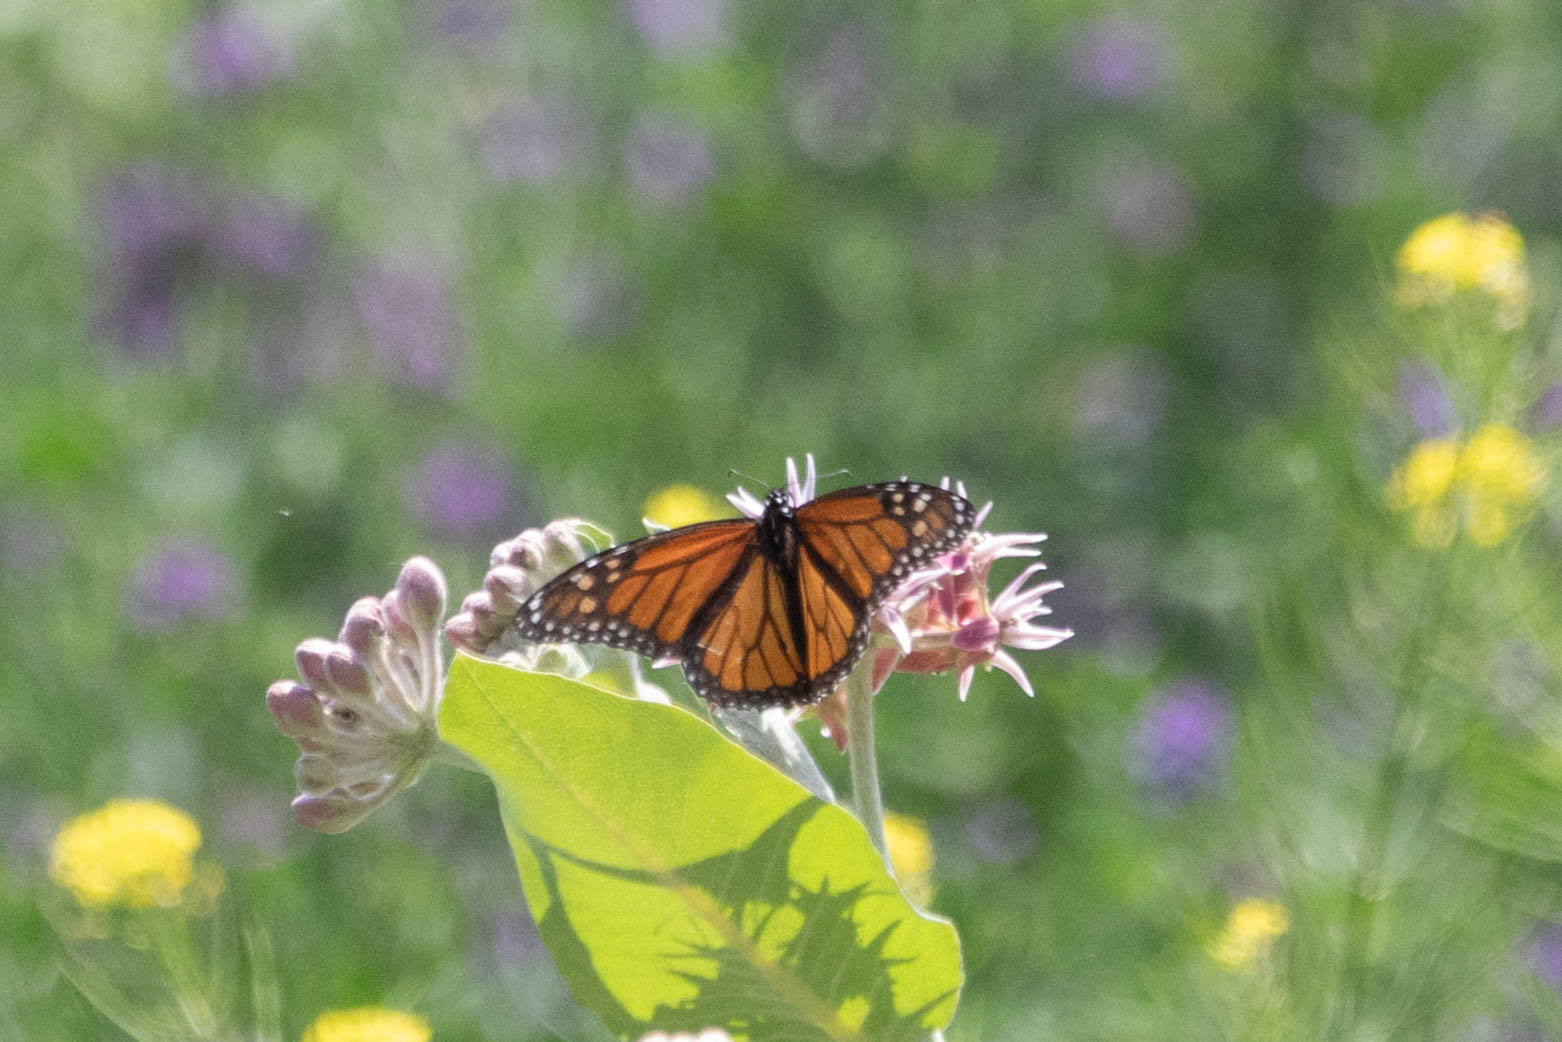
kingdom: Animalia
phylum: Arthropoda
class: Insecta
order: Lepidoptera
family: Nymphalidae
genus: Danaus
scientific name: Danaus plexippus
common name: Monarch
